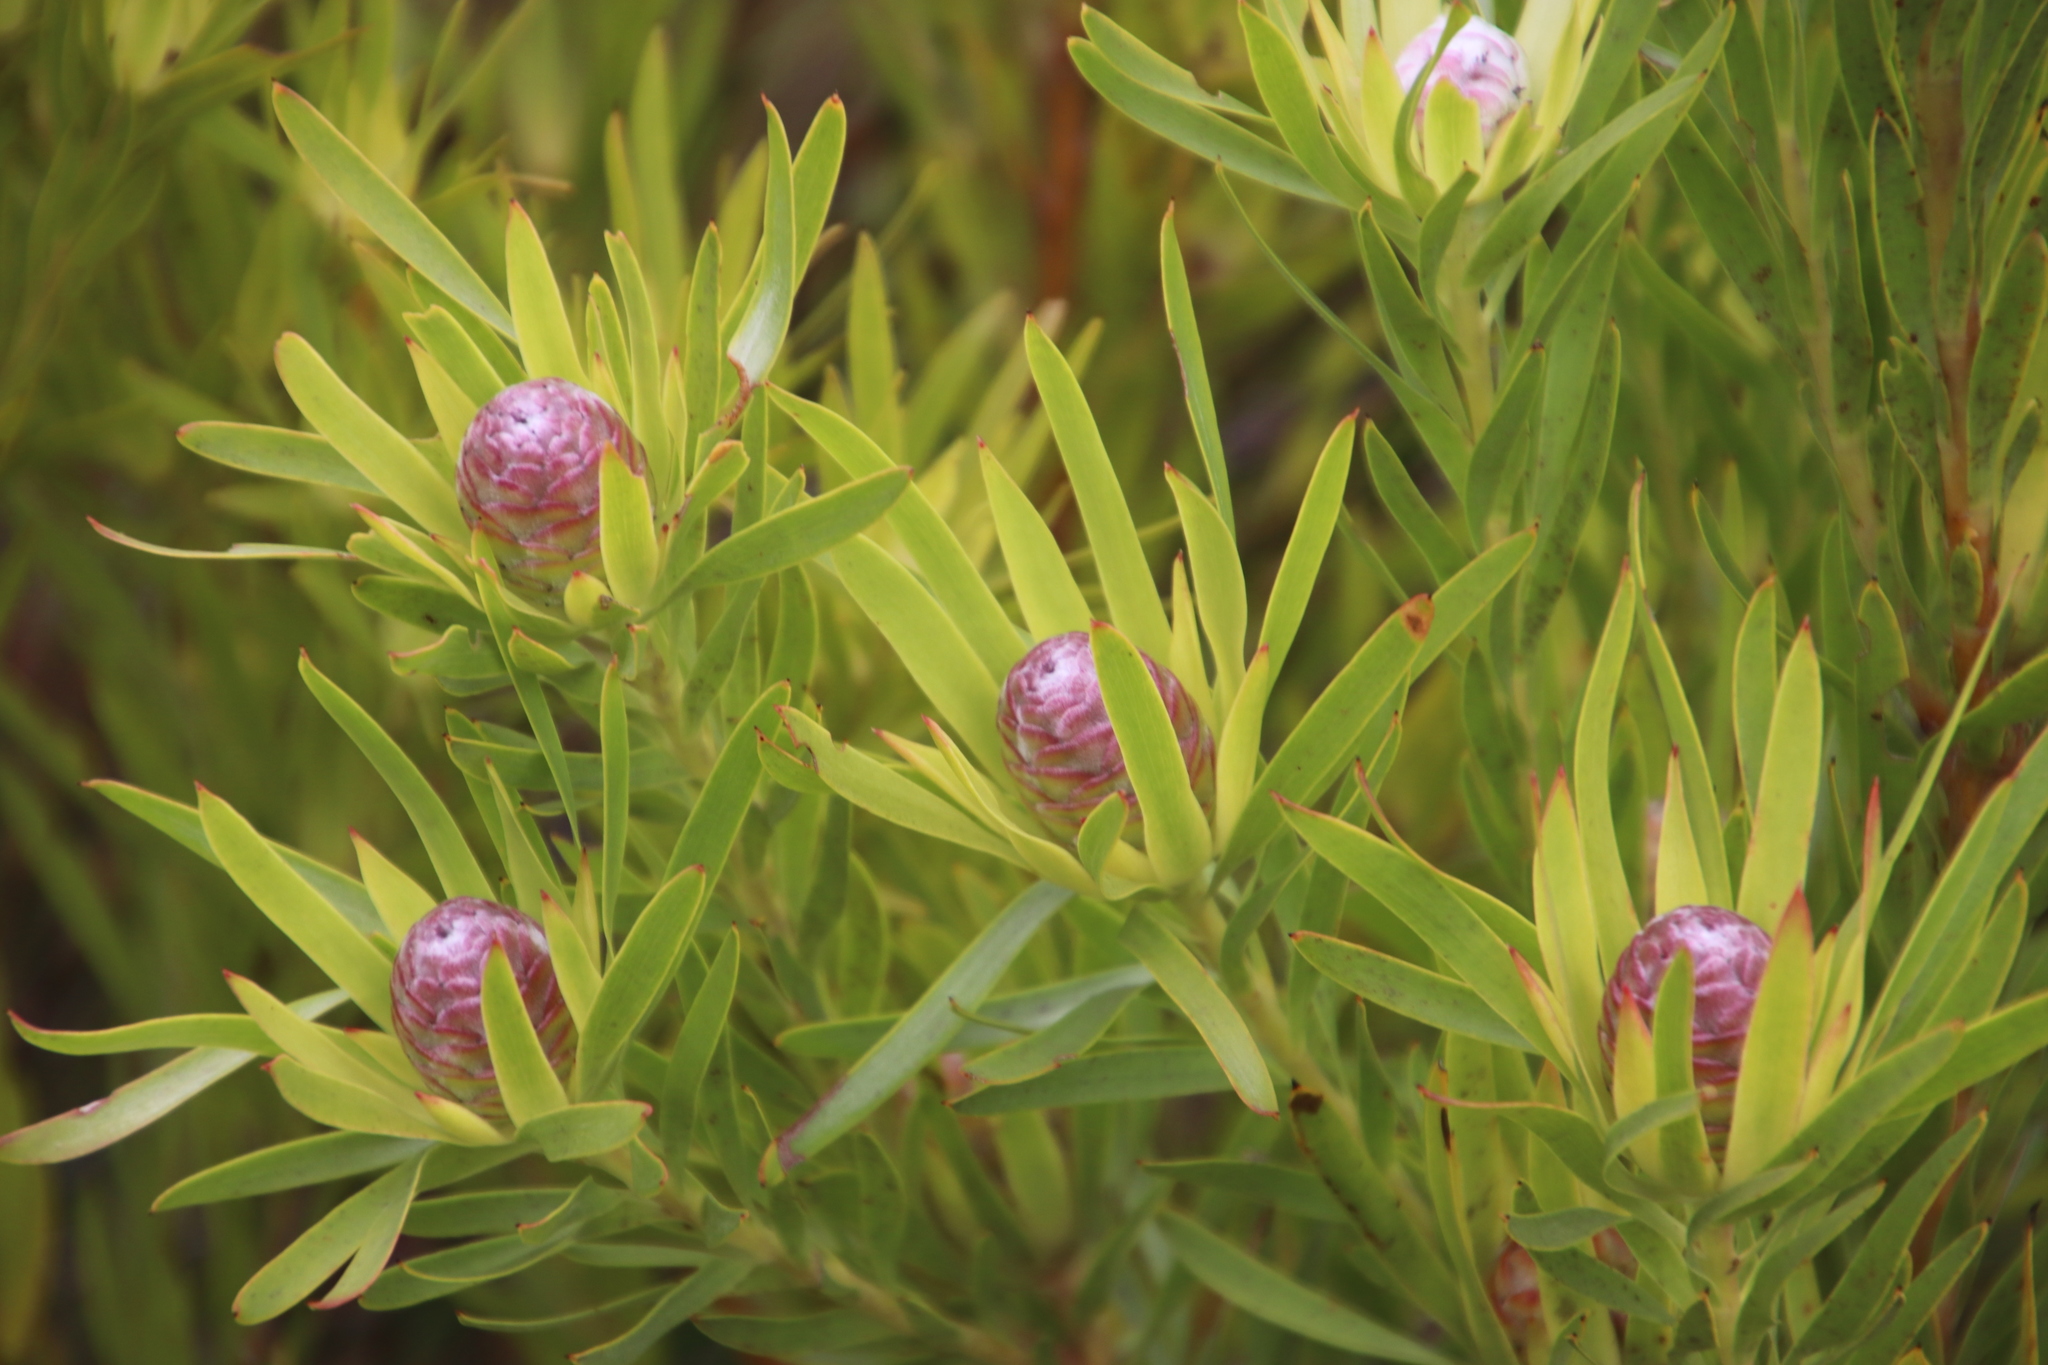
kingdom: Plantae
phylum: Tracheophyta
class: Magnoliopsida
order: Proteales
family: Proteaceae
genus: Leucadendron
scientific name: Leucadendron xanthoconus
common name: Sickle-leaf conebush
